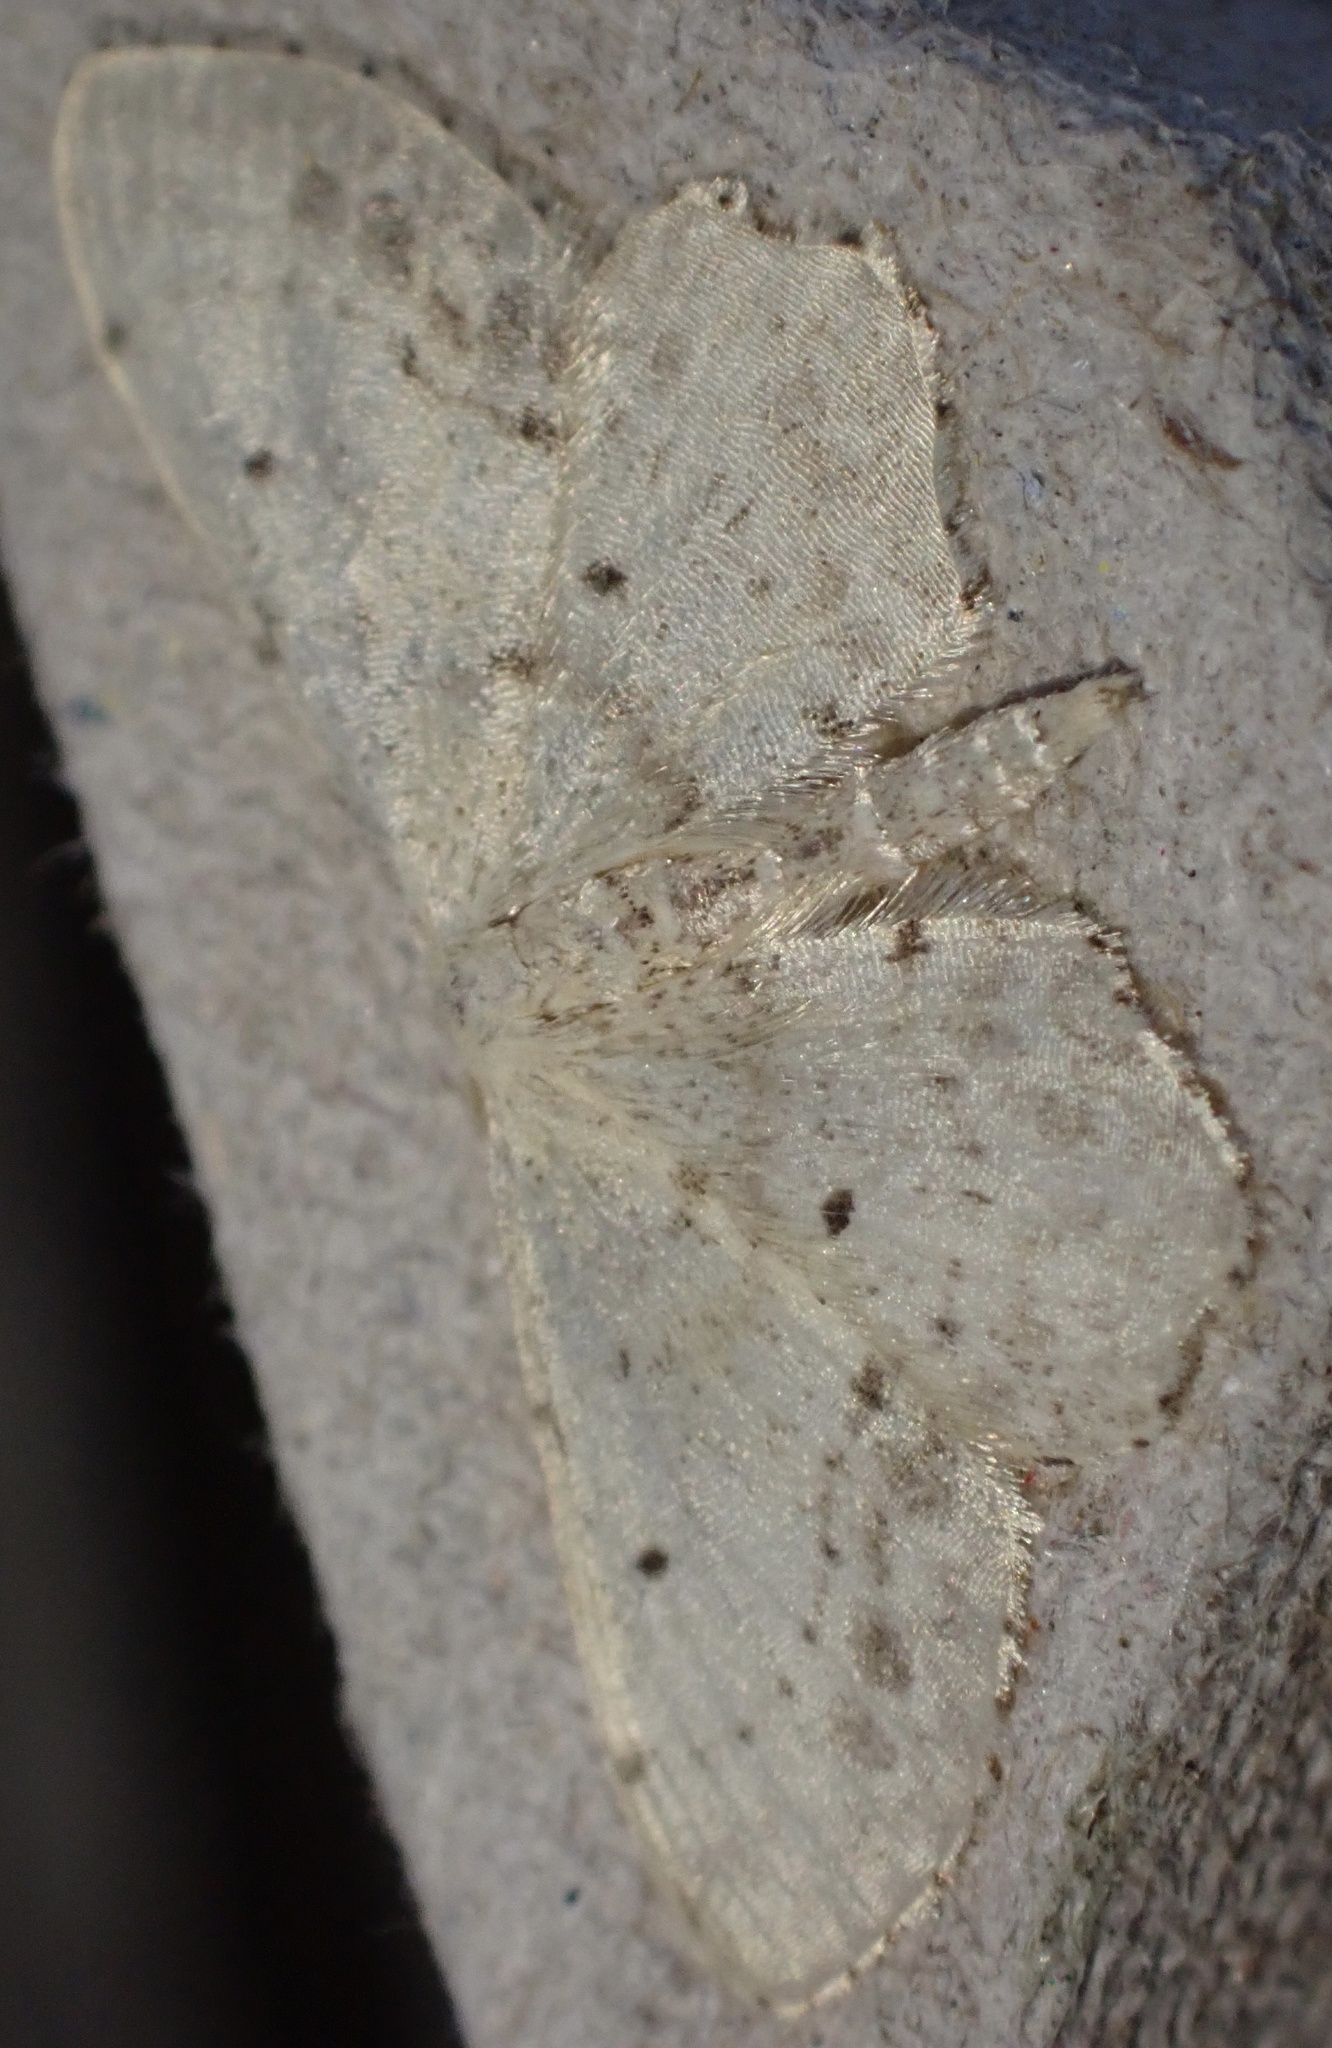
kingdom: Animalia
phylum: Arthropoda
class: Insecta
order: Lepidoptera
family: Geometridae
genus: Idaea
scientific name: Idaea dimidiata
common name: Single-dotted wave
